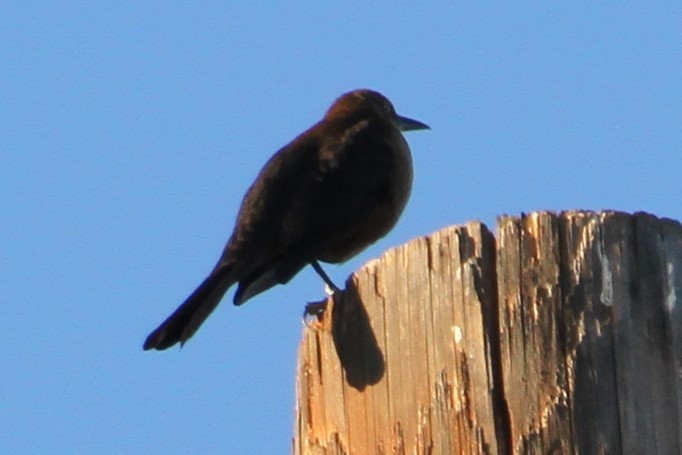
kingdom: Animalia
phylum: Chordata
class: Aves
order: Passeriformes
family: Icteridae
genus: Quiscalus
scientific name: Quiscalus mexicanus
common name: Great-tailed grackle
